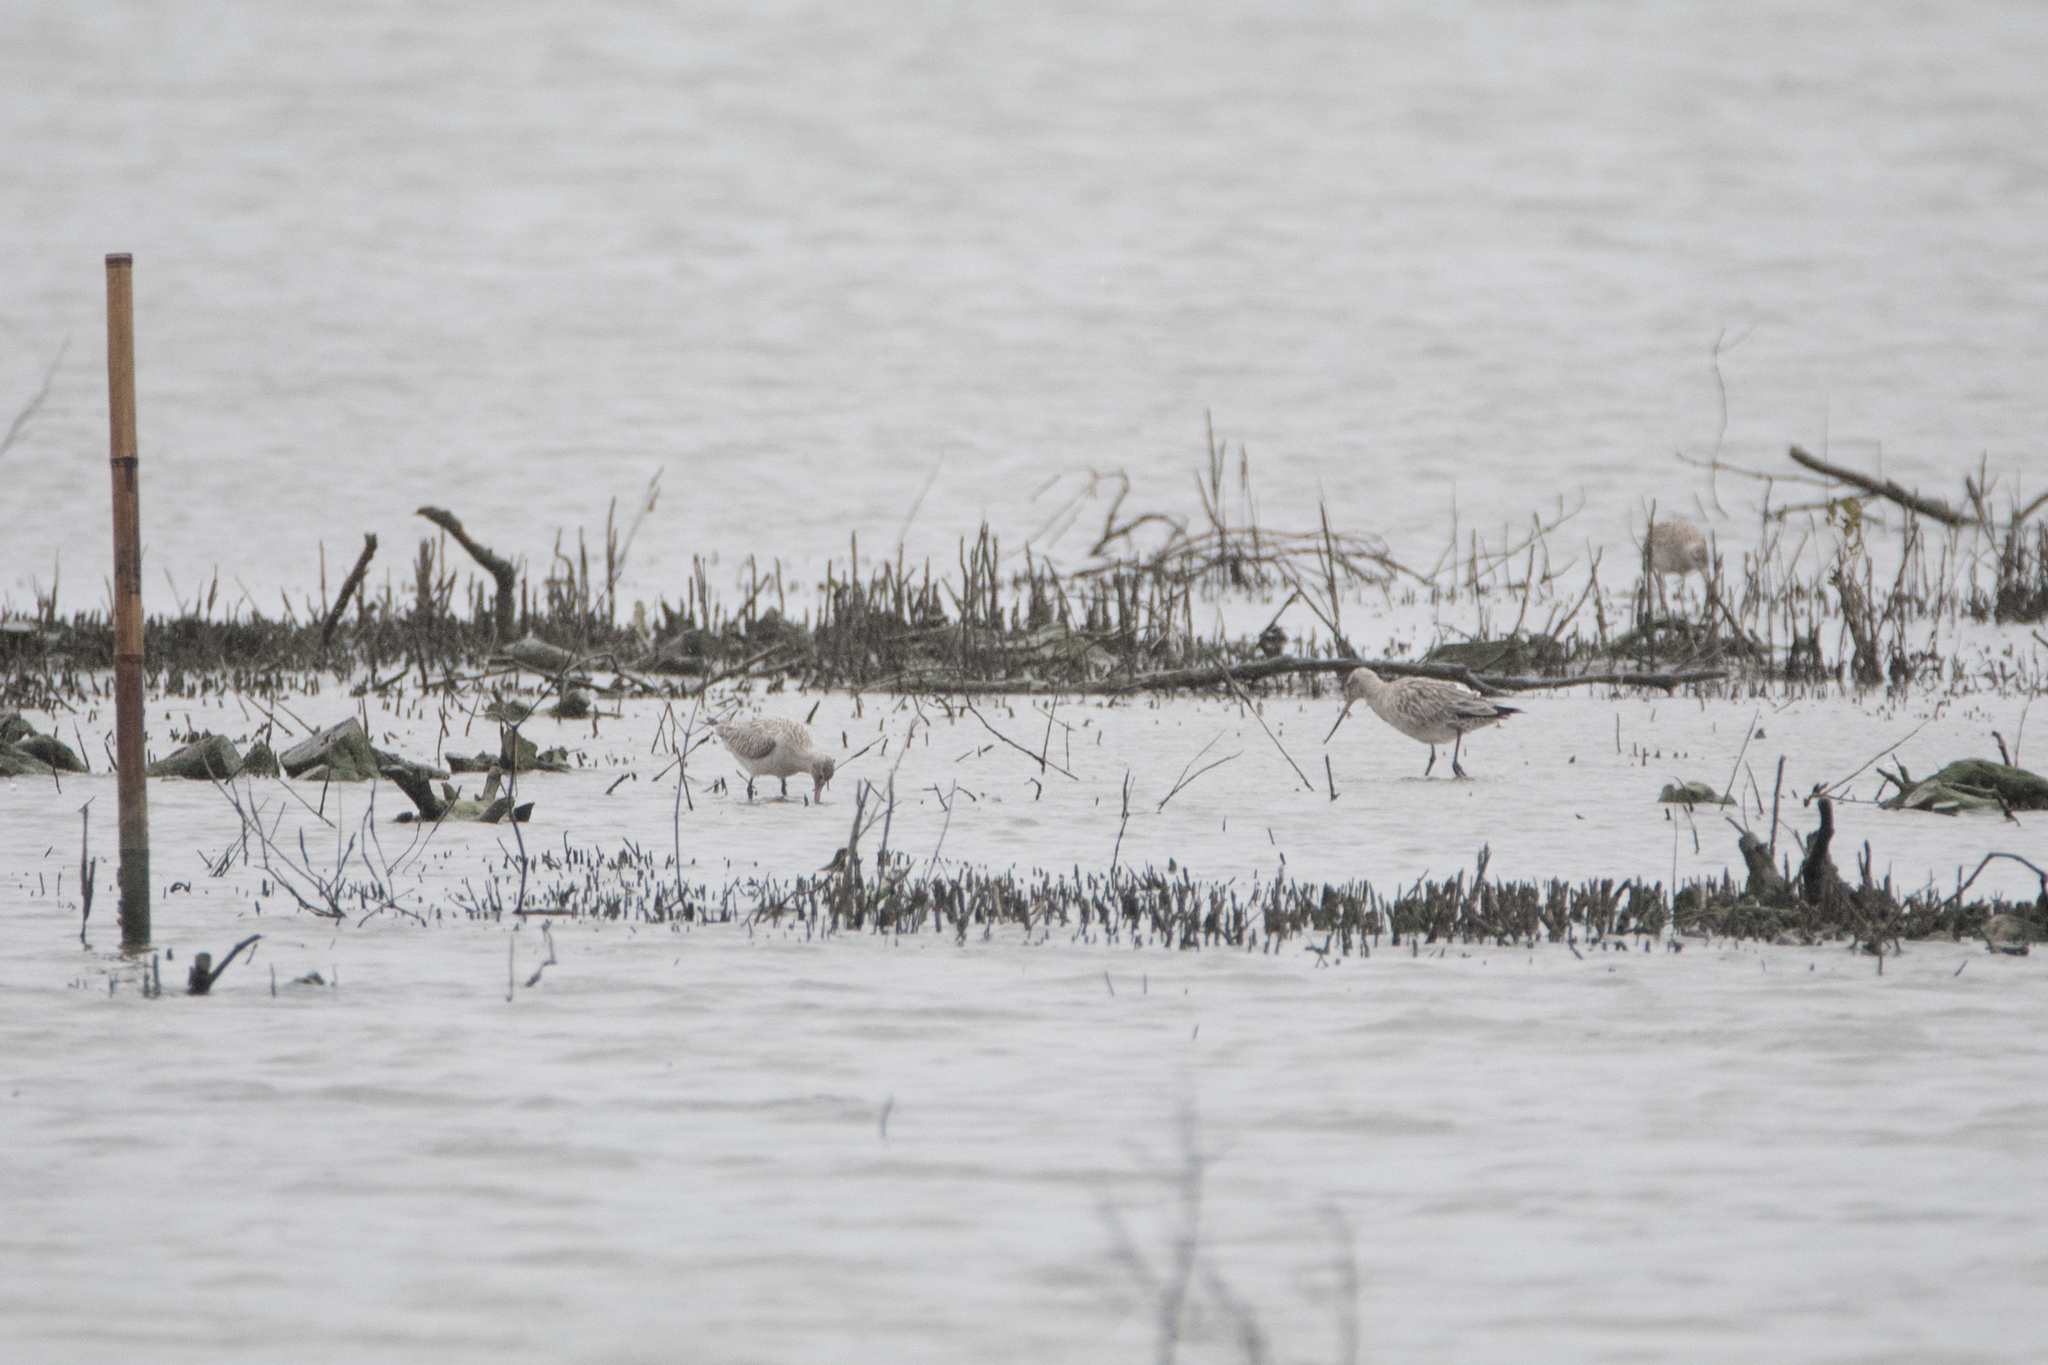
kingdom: Animalia
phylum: Chordata
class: Aves
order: Charadriiformes
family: Scolopacidae
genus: Limosa
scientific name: Limosa lapponica
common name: Bar-tailed godwit
